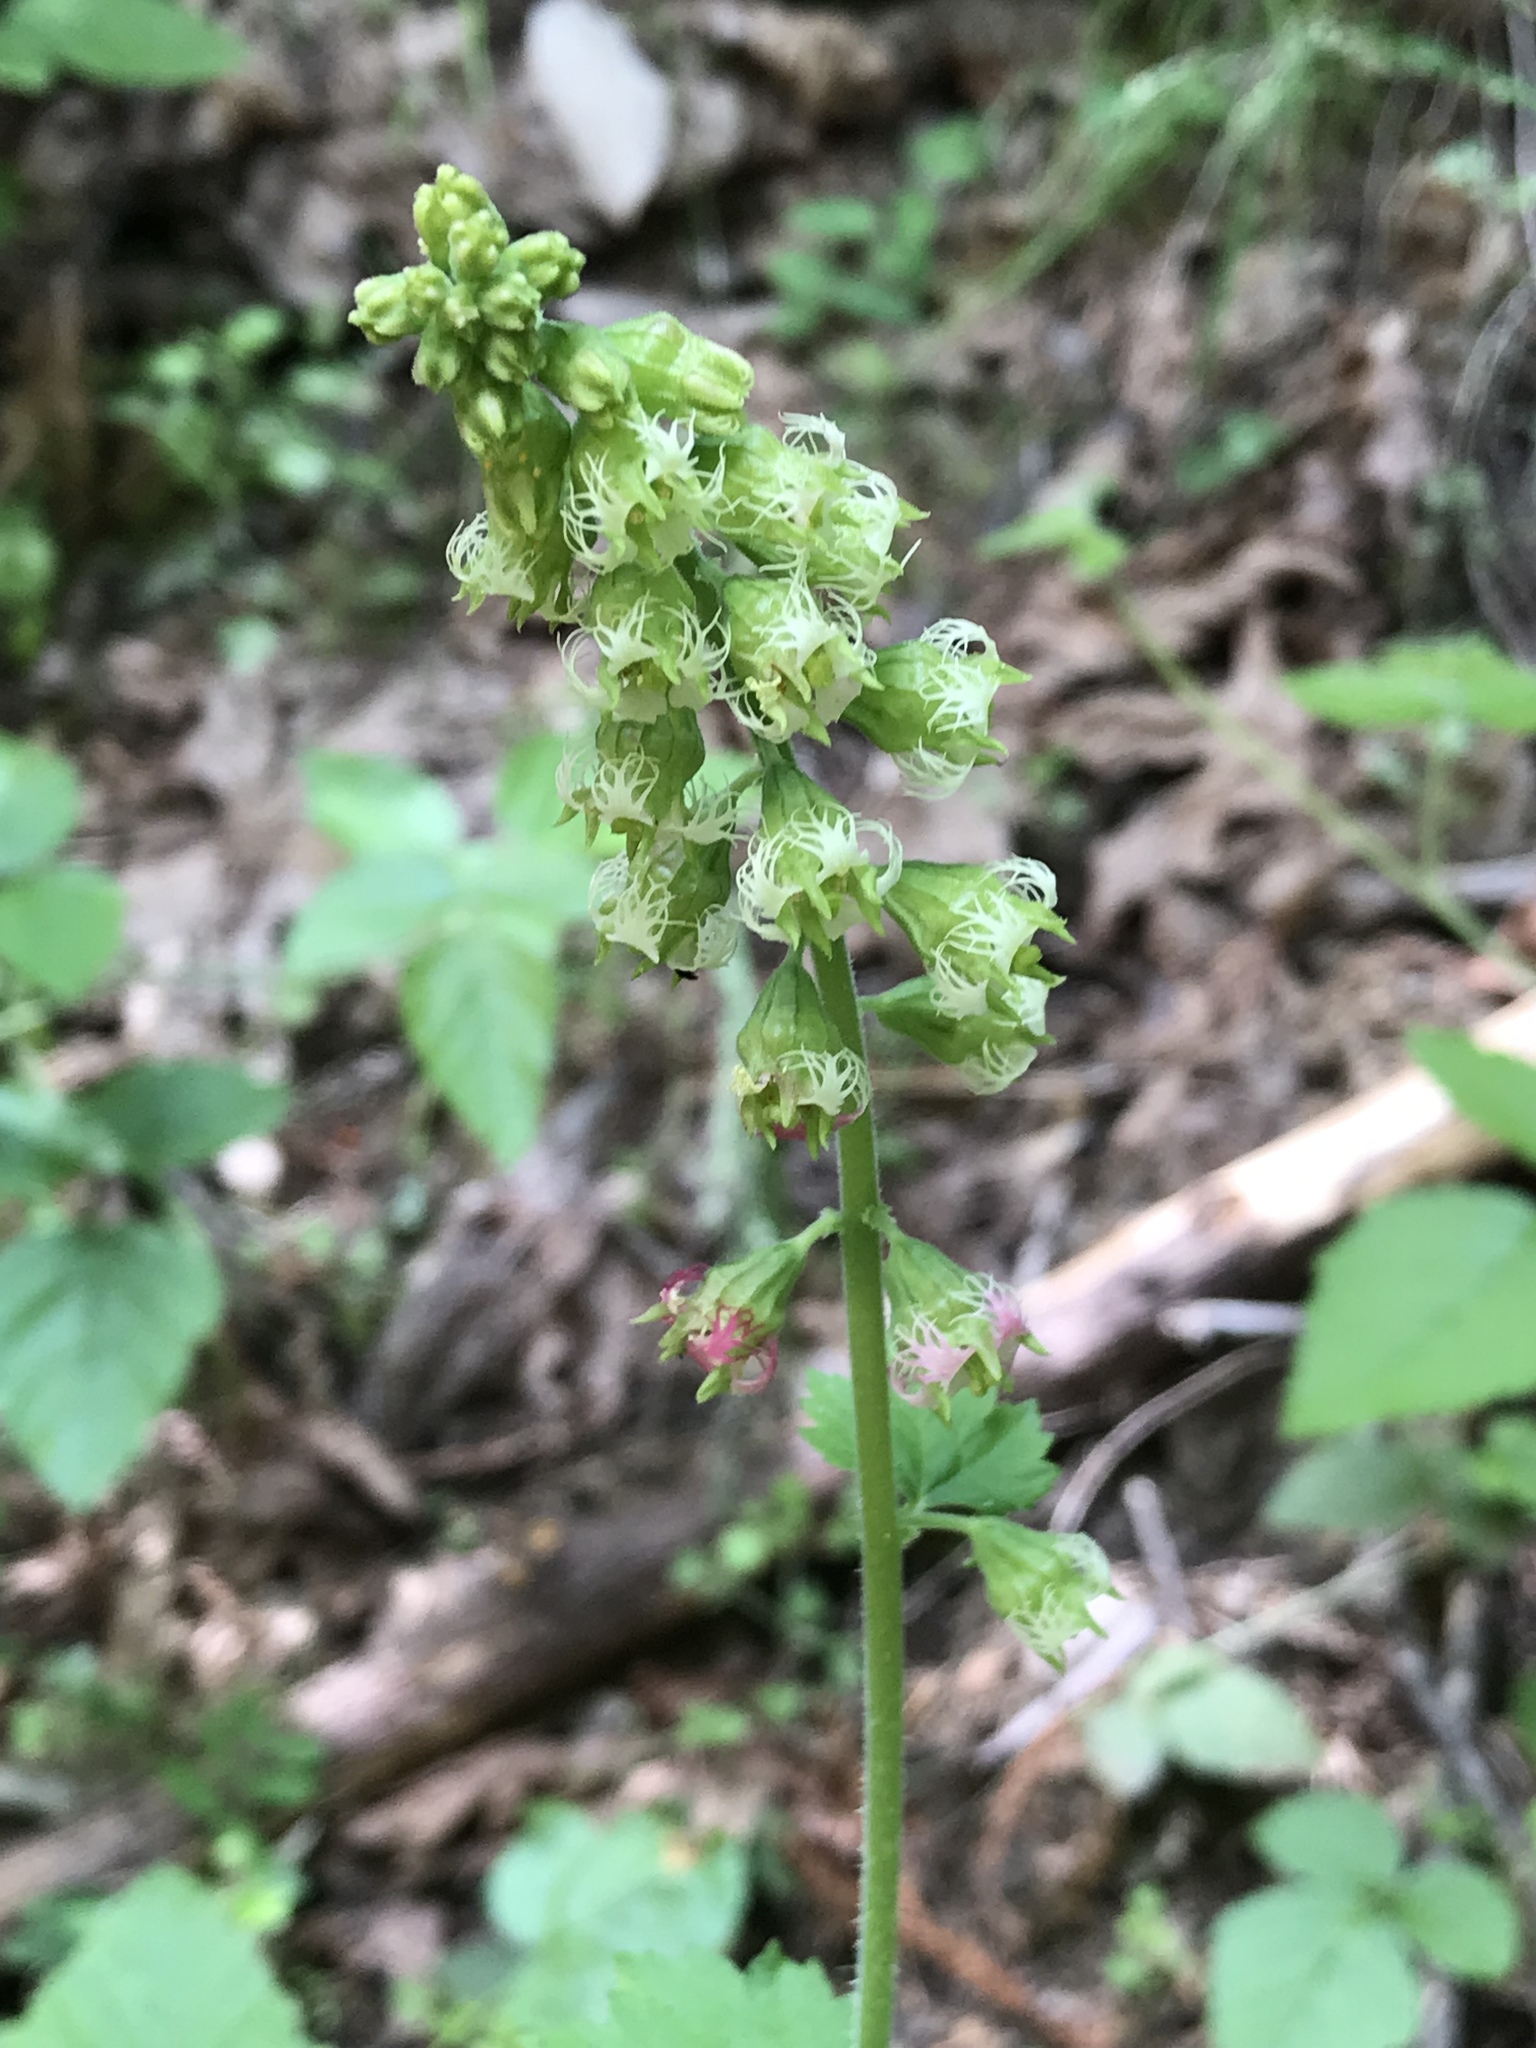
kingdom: Plantae
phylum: Tracheophyta
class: Magnoliopsida
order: Saxifragales
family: Saxifragaceae
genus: Tellima
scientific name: Tellima grandiflora
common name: Fringecups
